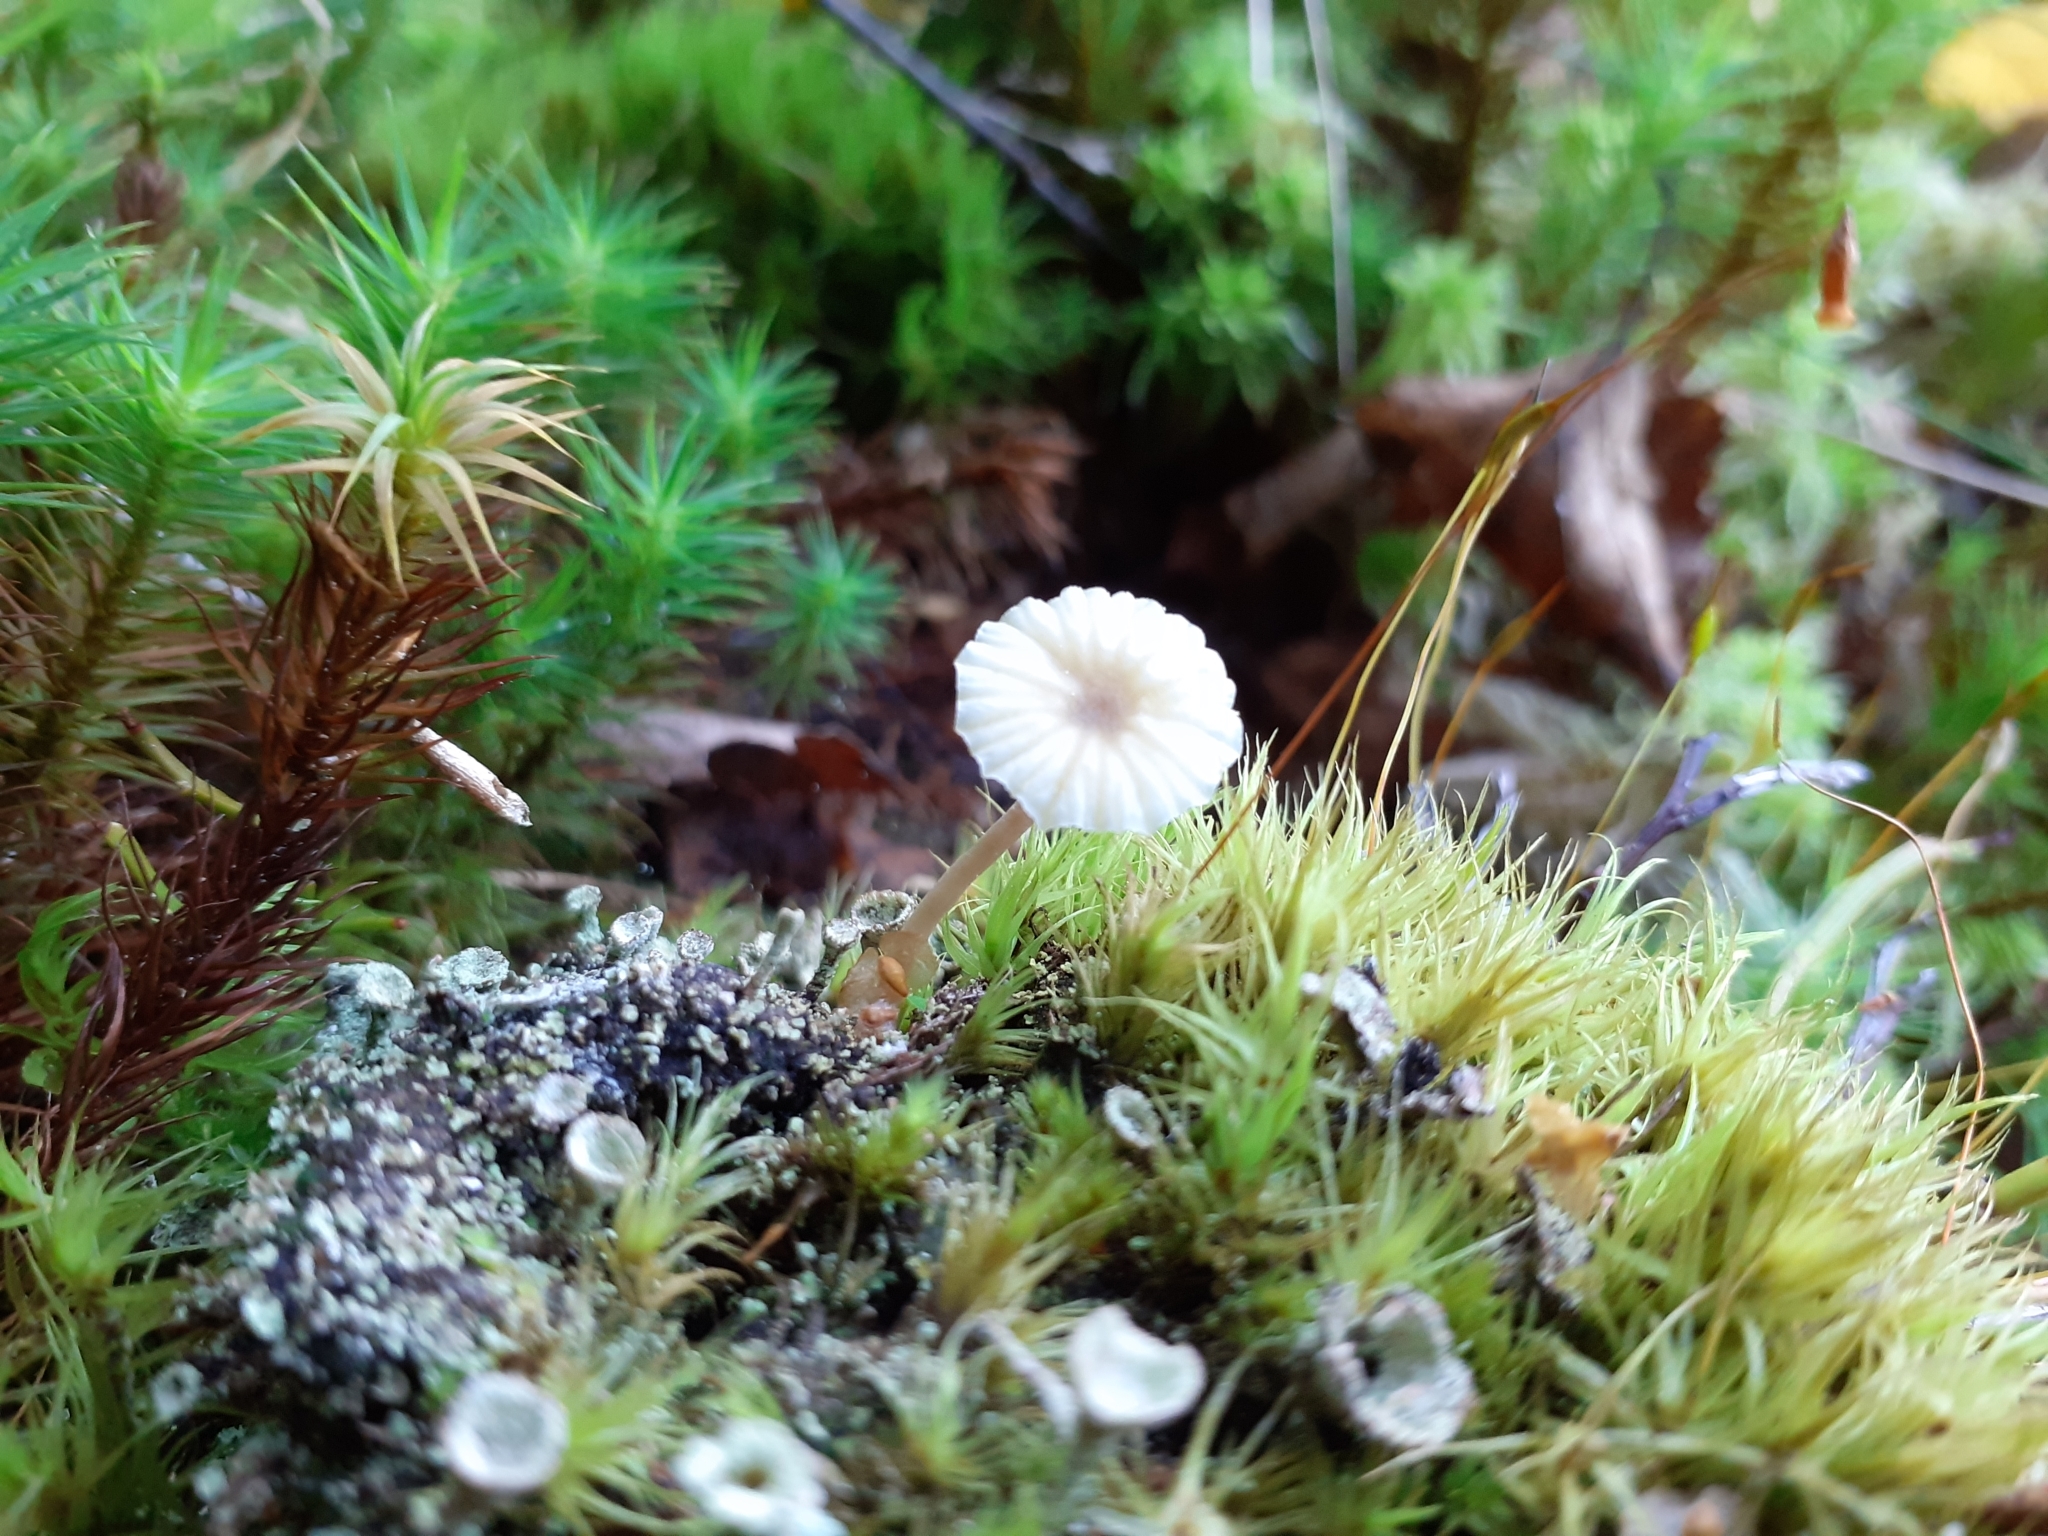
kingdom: Fungi
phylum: Basidiomycota
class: Agaricomycetes
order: Agaricales
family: Hygrophoraceae
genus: Lichenomphalia
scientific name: Lichenomphalia
